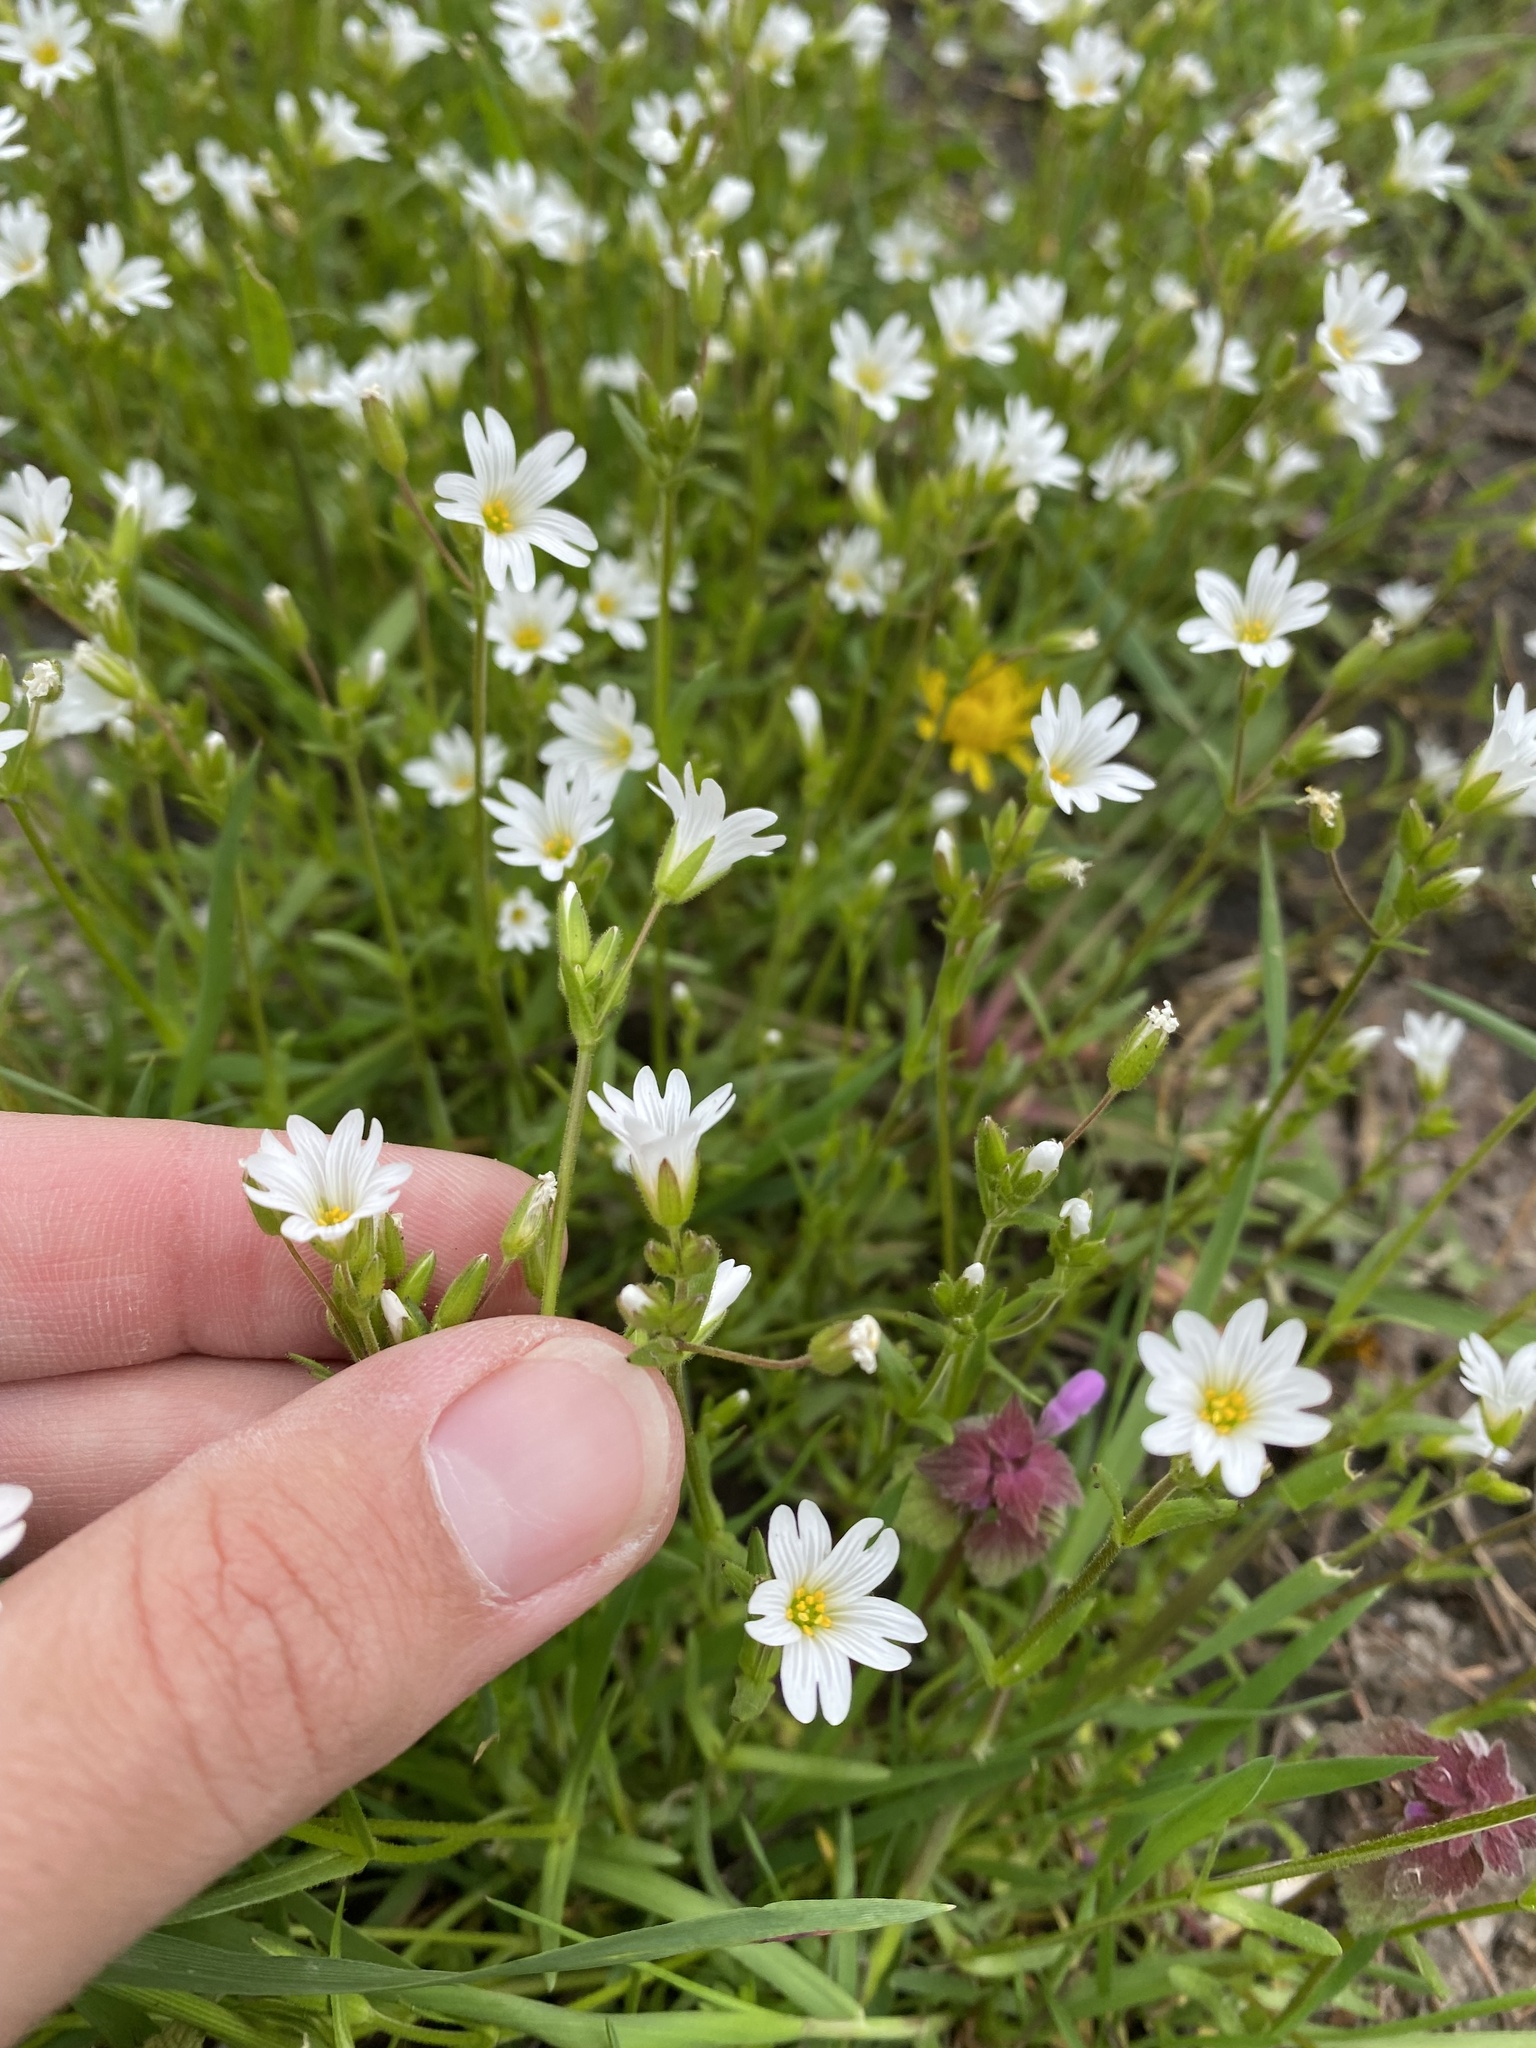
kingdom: Plantae
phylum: Tracheophyta
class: Magnoliopsida
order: Caryophyllales
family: Caryophyllaceae
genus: Dichodon
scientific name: Dichodon viscidum
